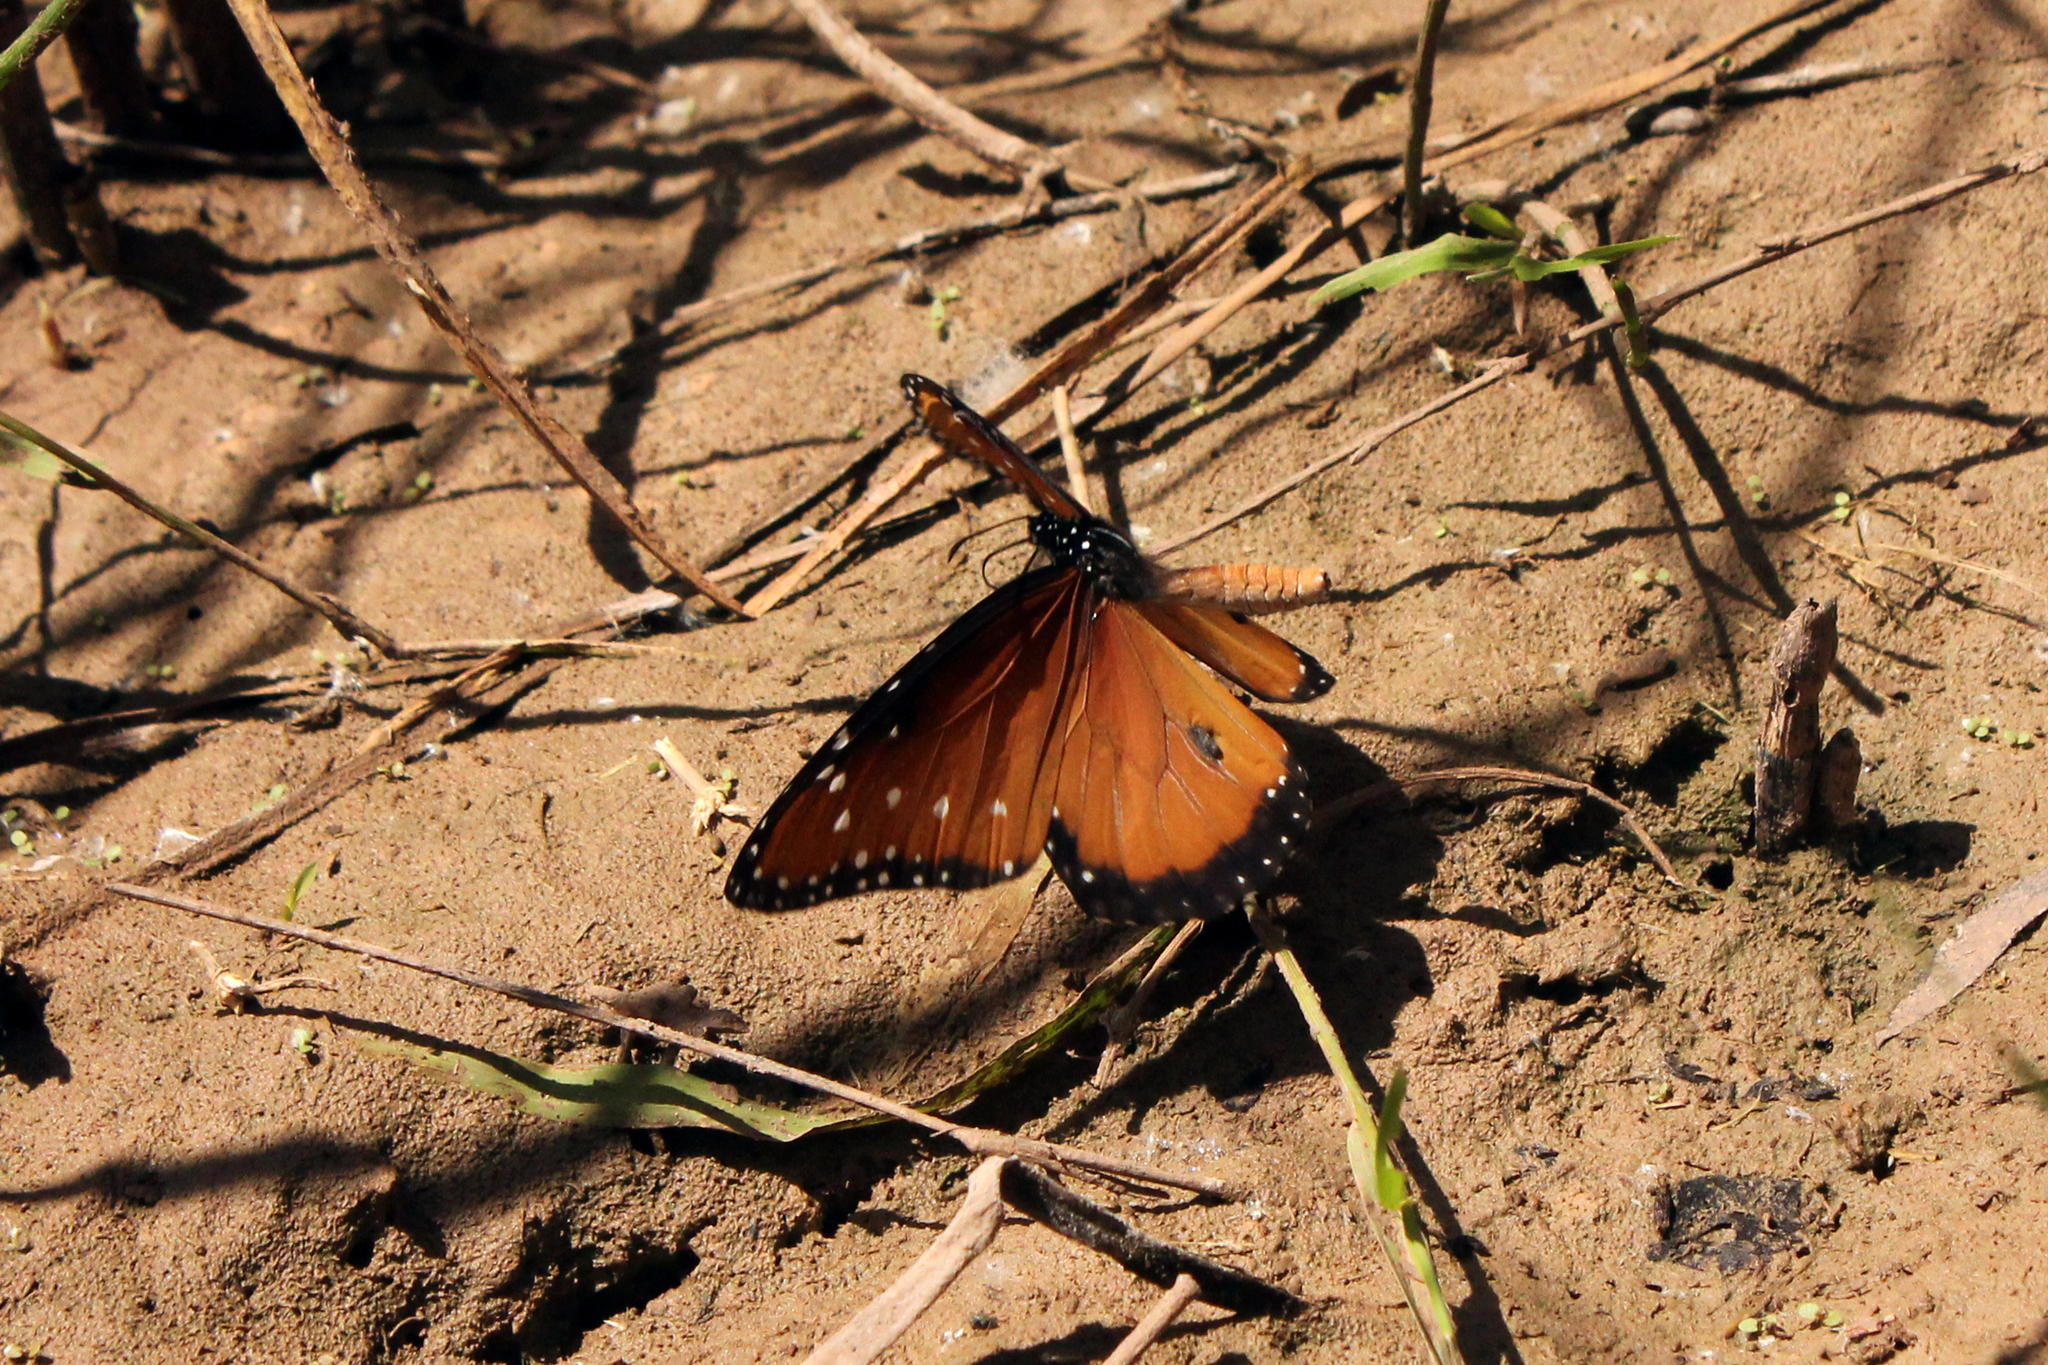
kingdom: Animalia
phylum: Arthropoda
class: Insecta
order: Lepidoptera
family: Nymphalidae
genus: Danaus
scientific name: Danaus gilippus
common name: Queen
